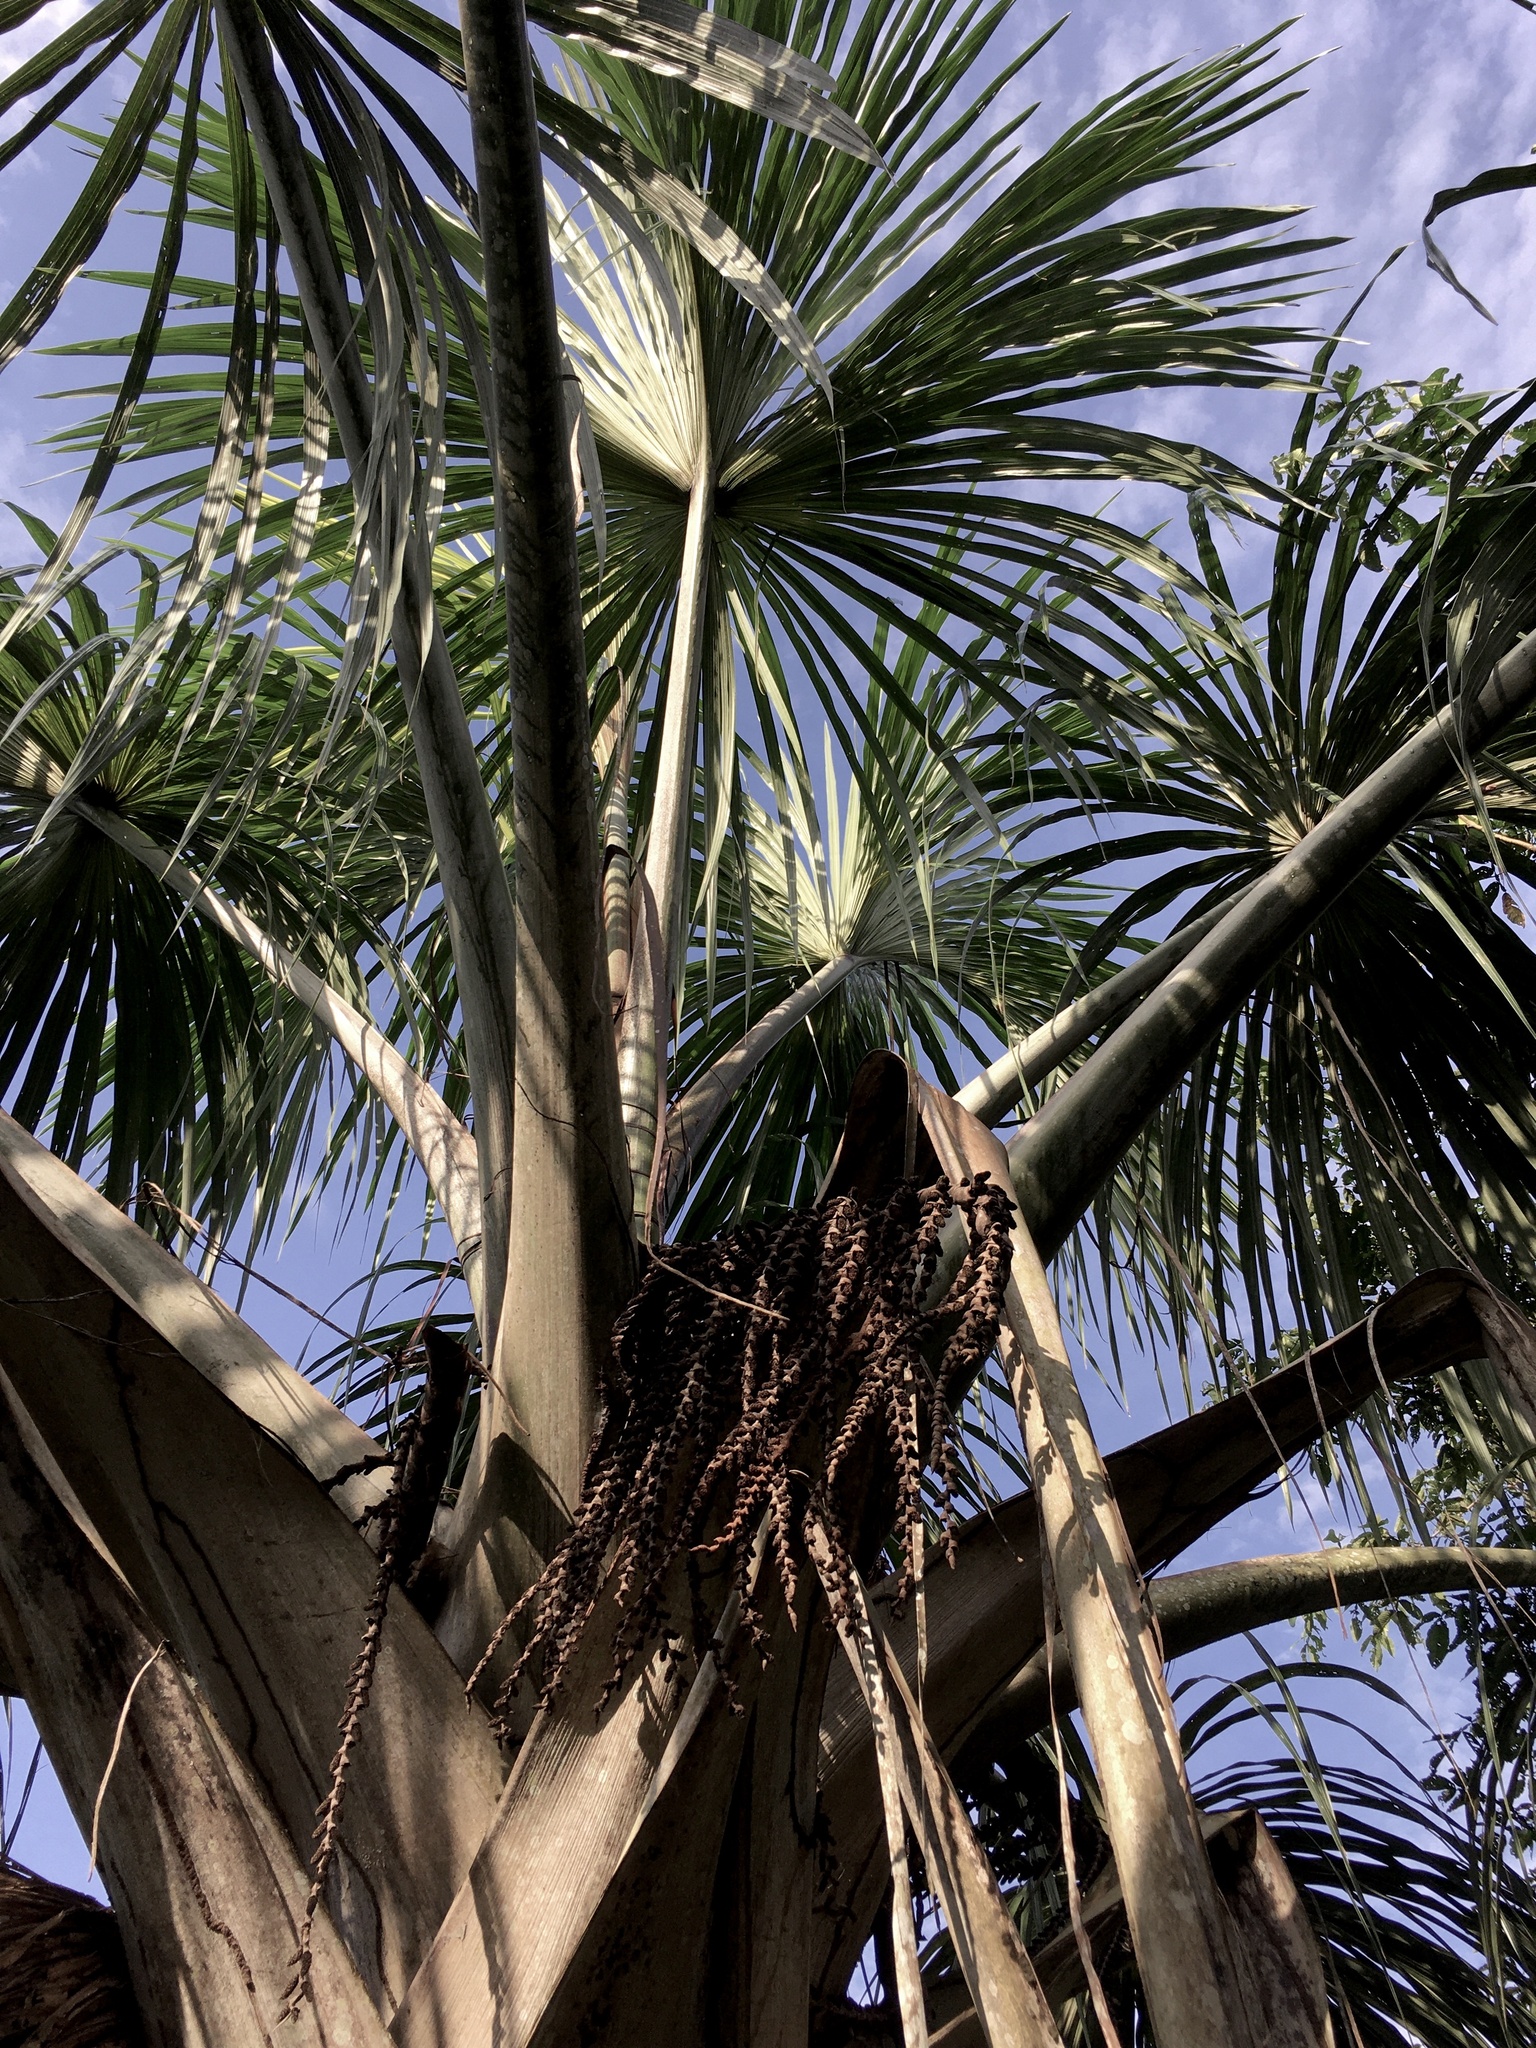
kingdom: Plantae
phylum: Tracheophyta
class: Liliopsida
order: Arecales
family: Arecaceae
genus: Mauritia
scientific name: Mauritia flexuosa
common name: Tree-of-life
